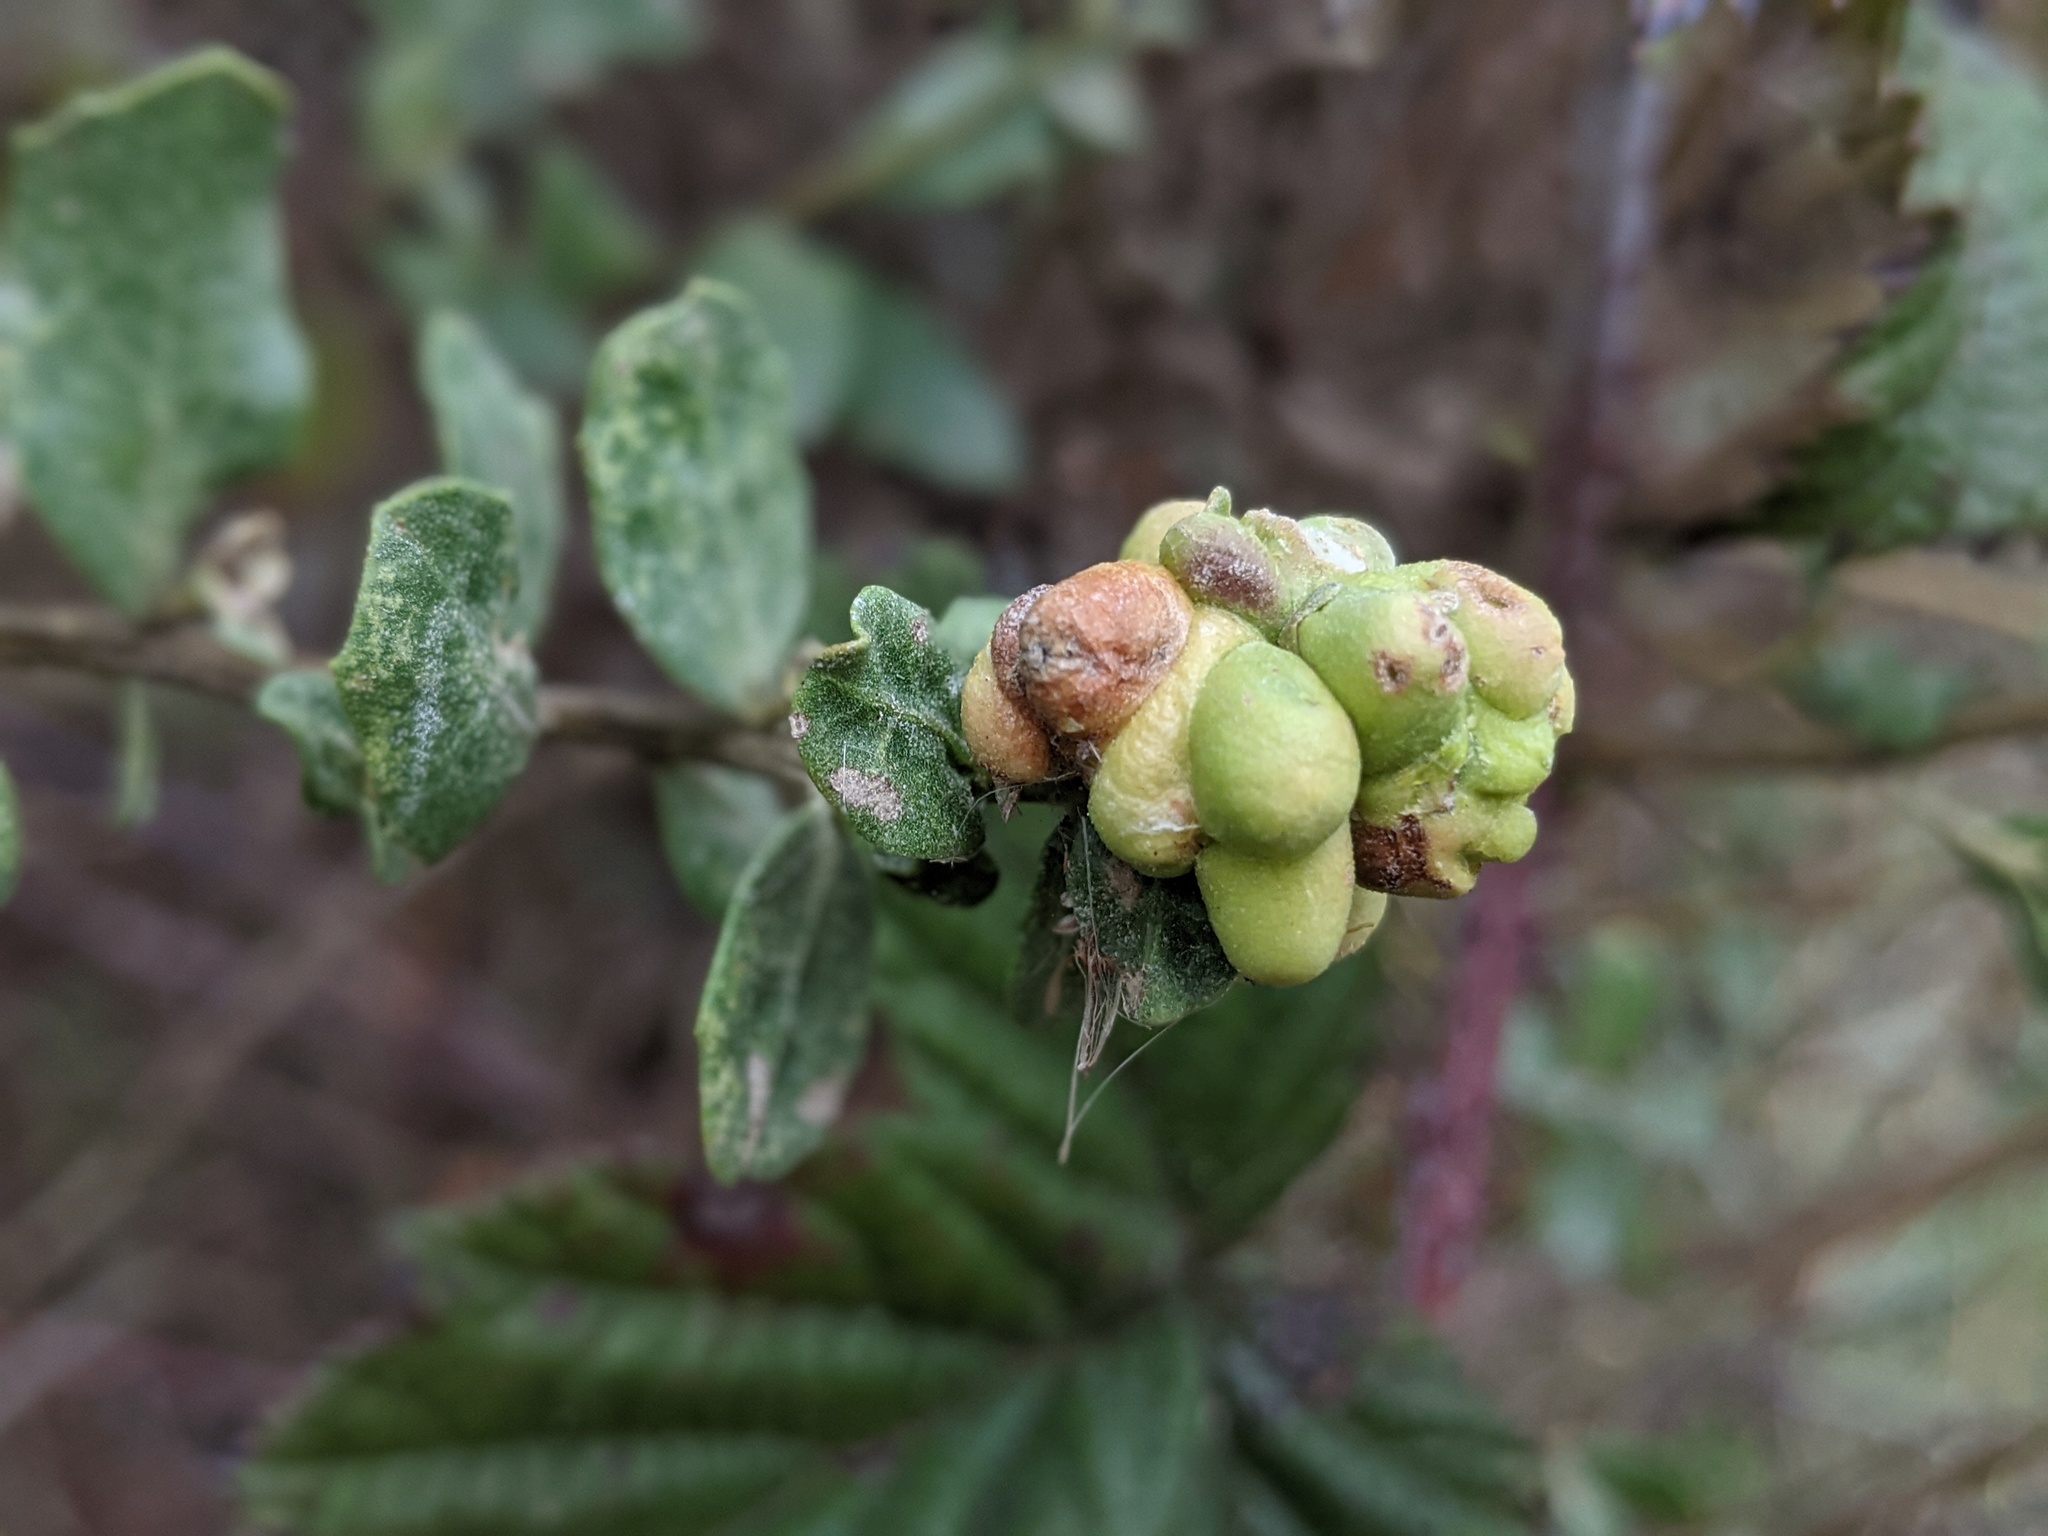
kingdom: Animalia
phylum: Arthropoda
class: Insecta
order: Diptera
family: Cecidomyiidae
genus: Rhopalomyia
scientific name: Rhopalomyia californica
